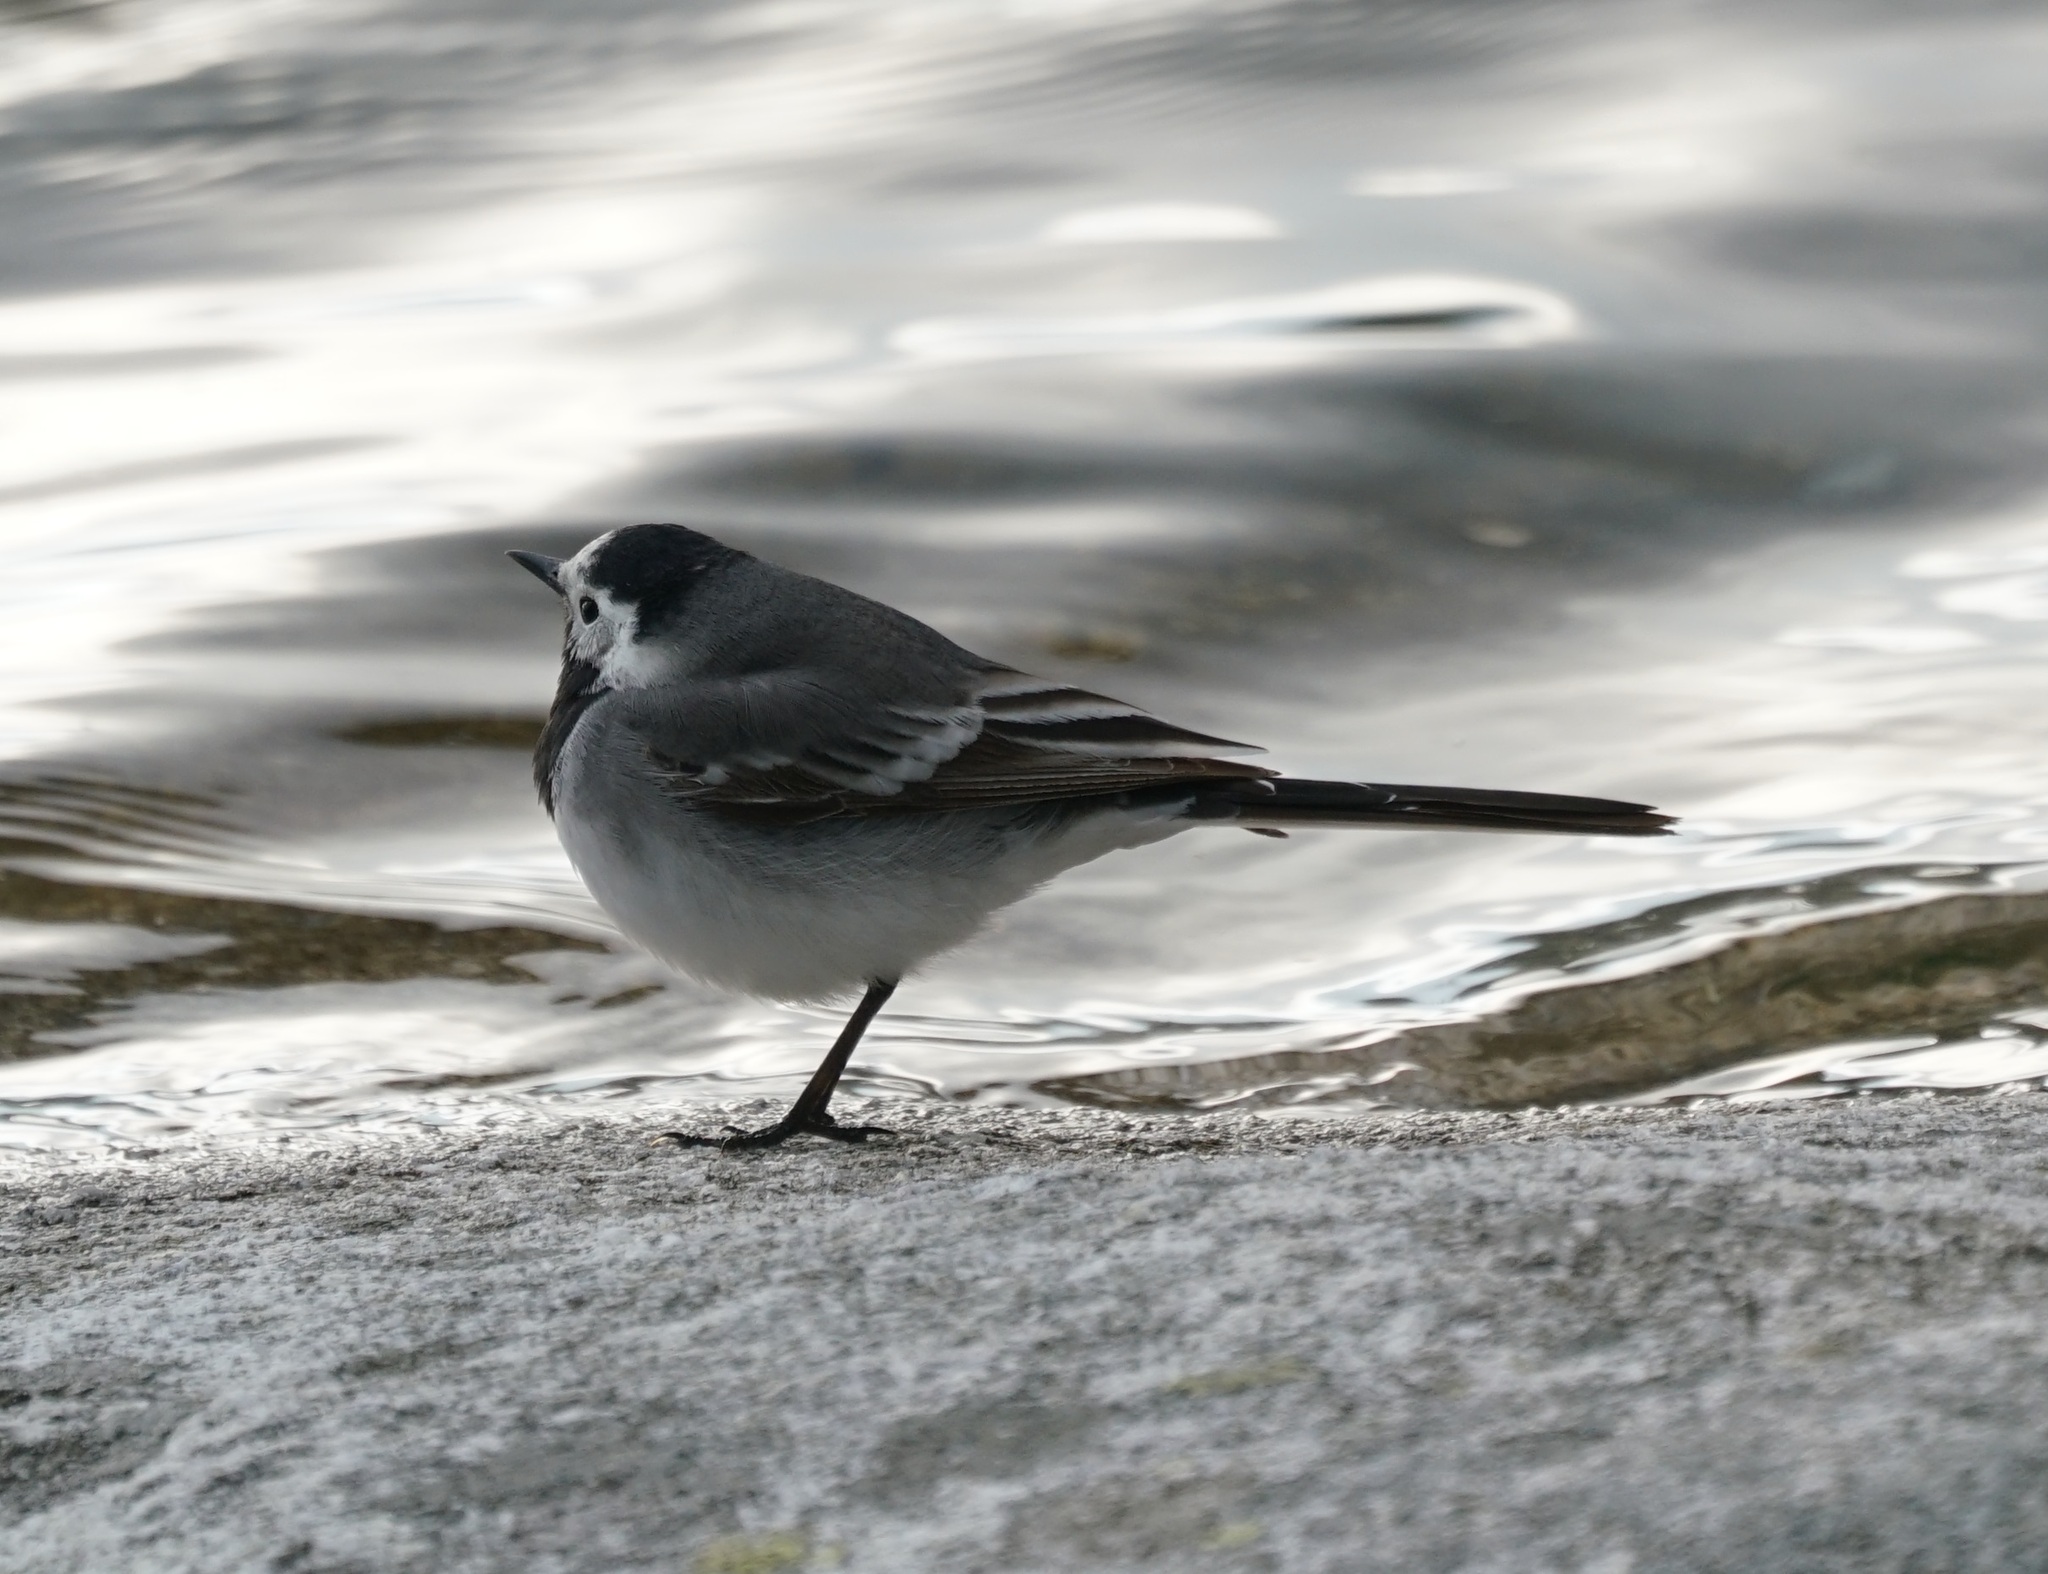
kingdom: Animalia
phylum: Chordata
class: Aves
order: Passeriformes
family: Motacillidae
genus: Motacilla
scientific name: Motacilla alba
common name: White wagtail
